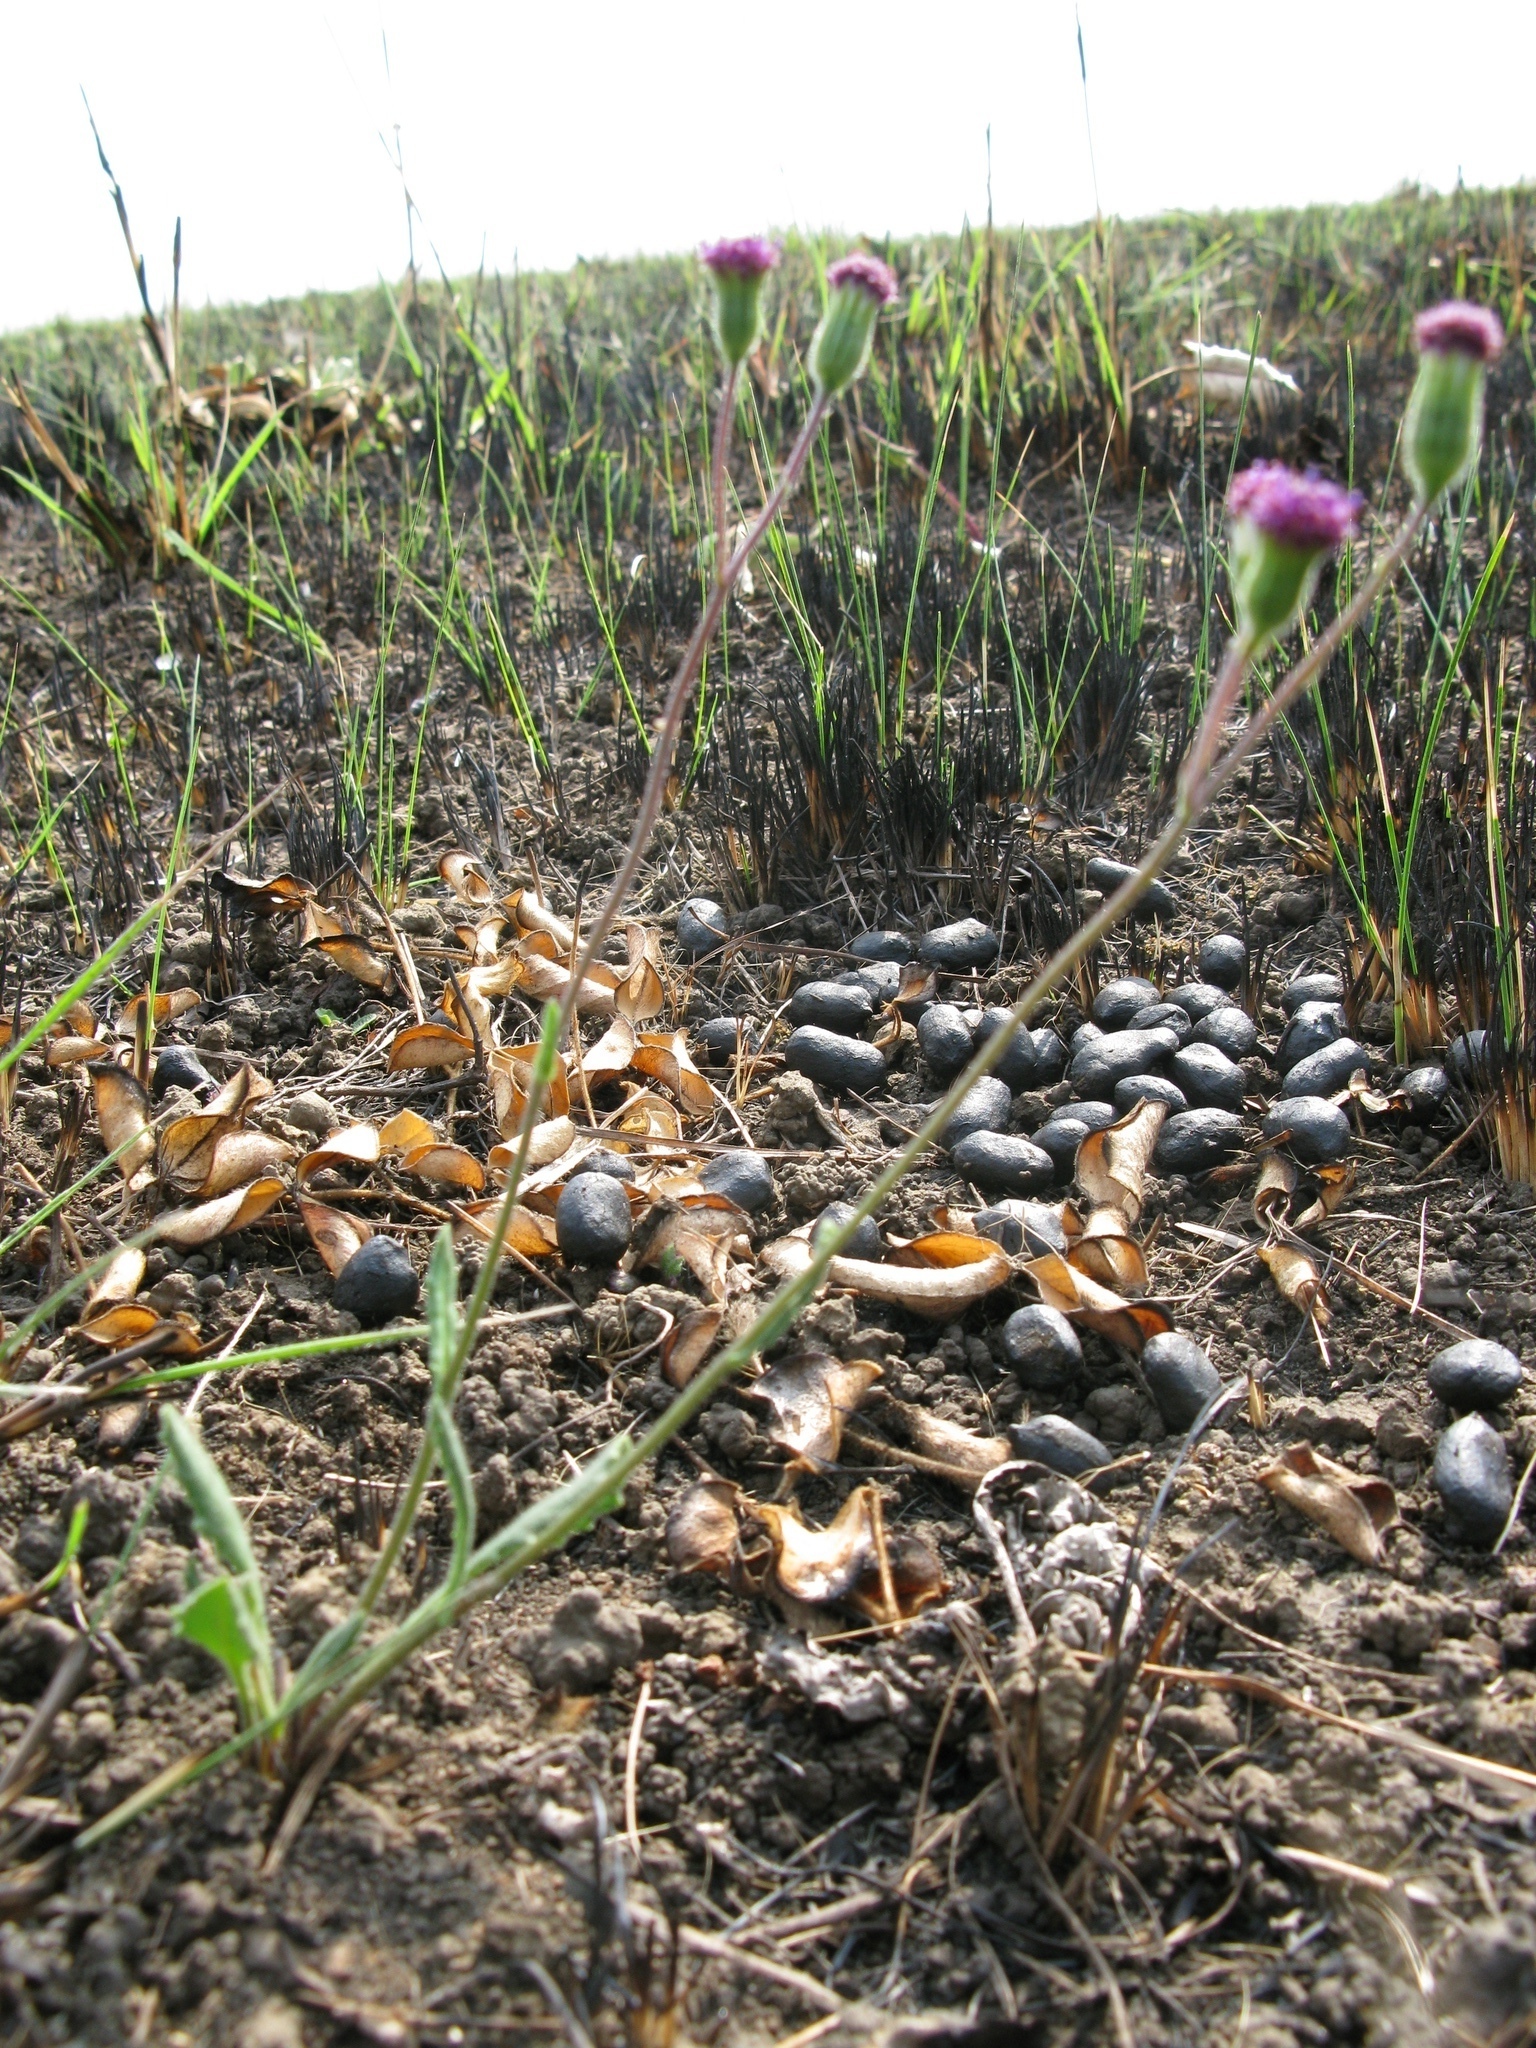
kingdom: Plantae
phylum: Tracheophyta
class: Magnoliopsida
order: Asterales
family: Asteraceae
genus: Senecio
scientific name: Senecio erubescens
